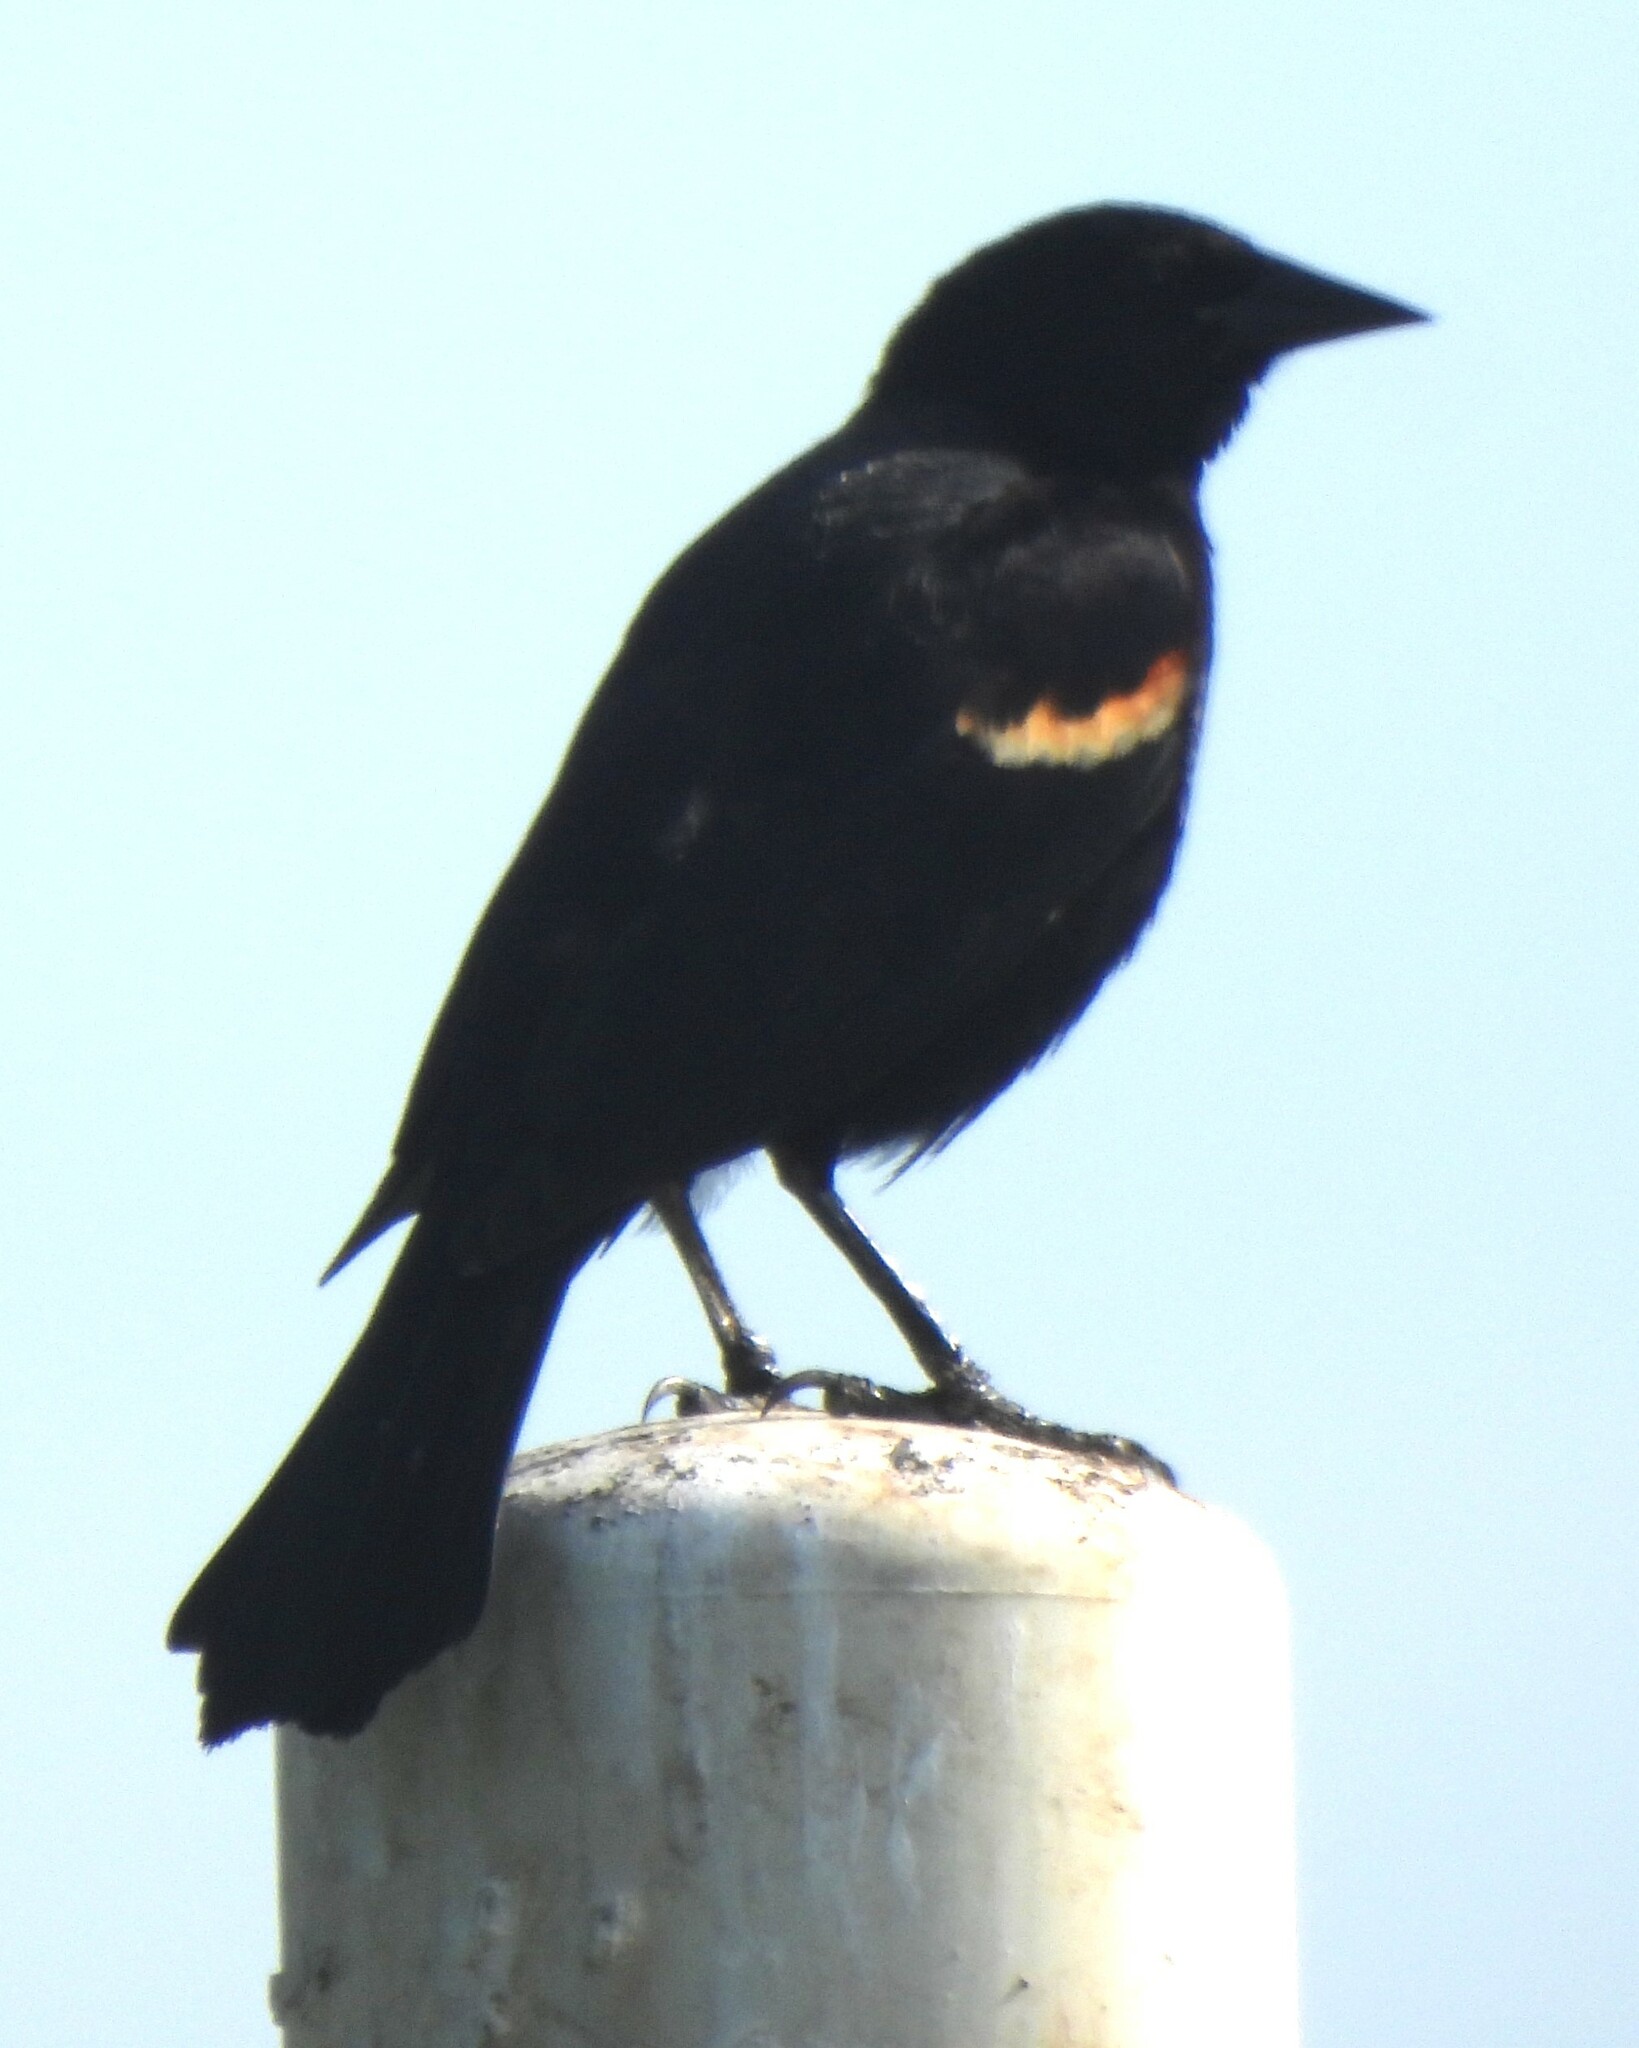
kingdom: Animalia
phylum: Chordata
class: Aves
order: Passeriformes
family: Icteridae
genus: Agelaius
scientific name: Agelaius phoeniceus
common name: Red-winged blackbird
